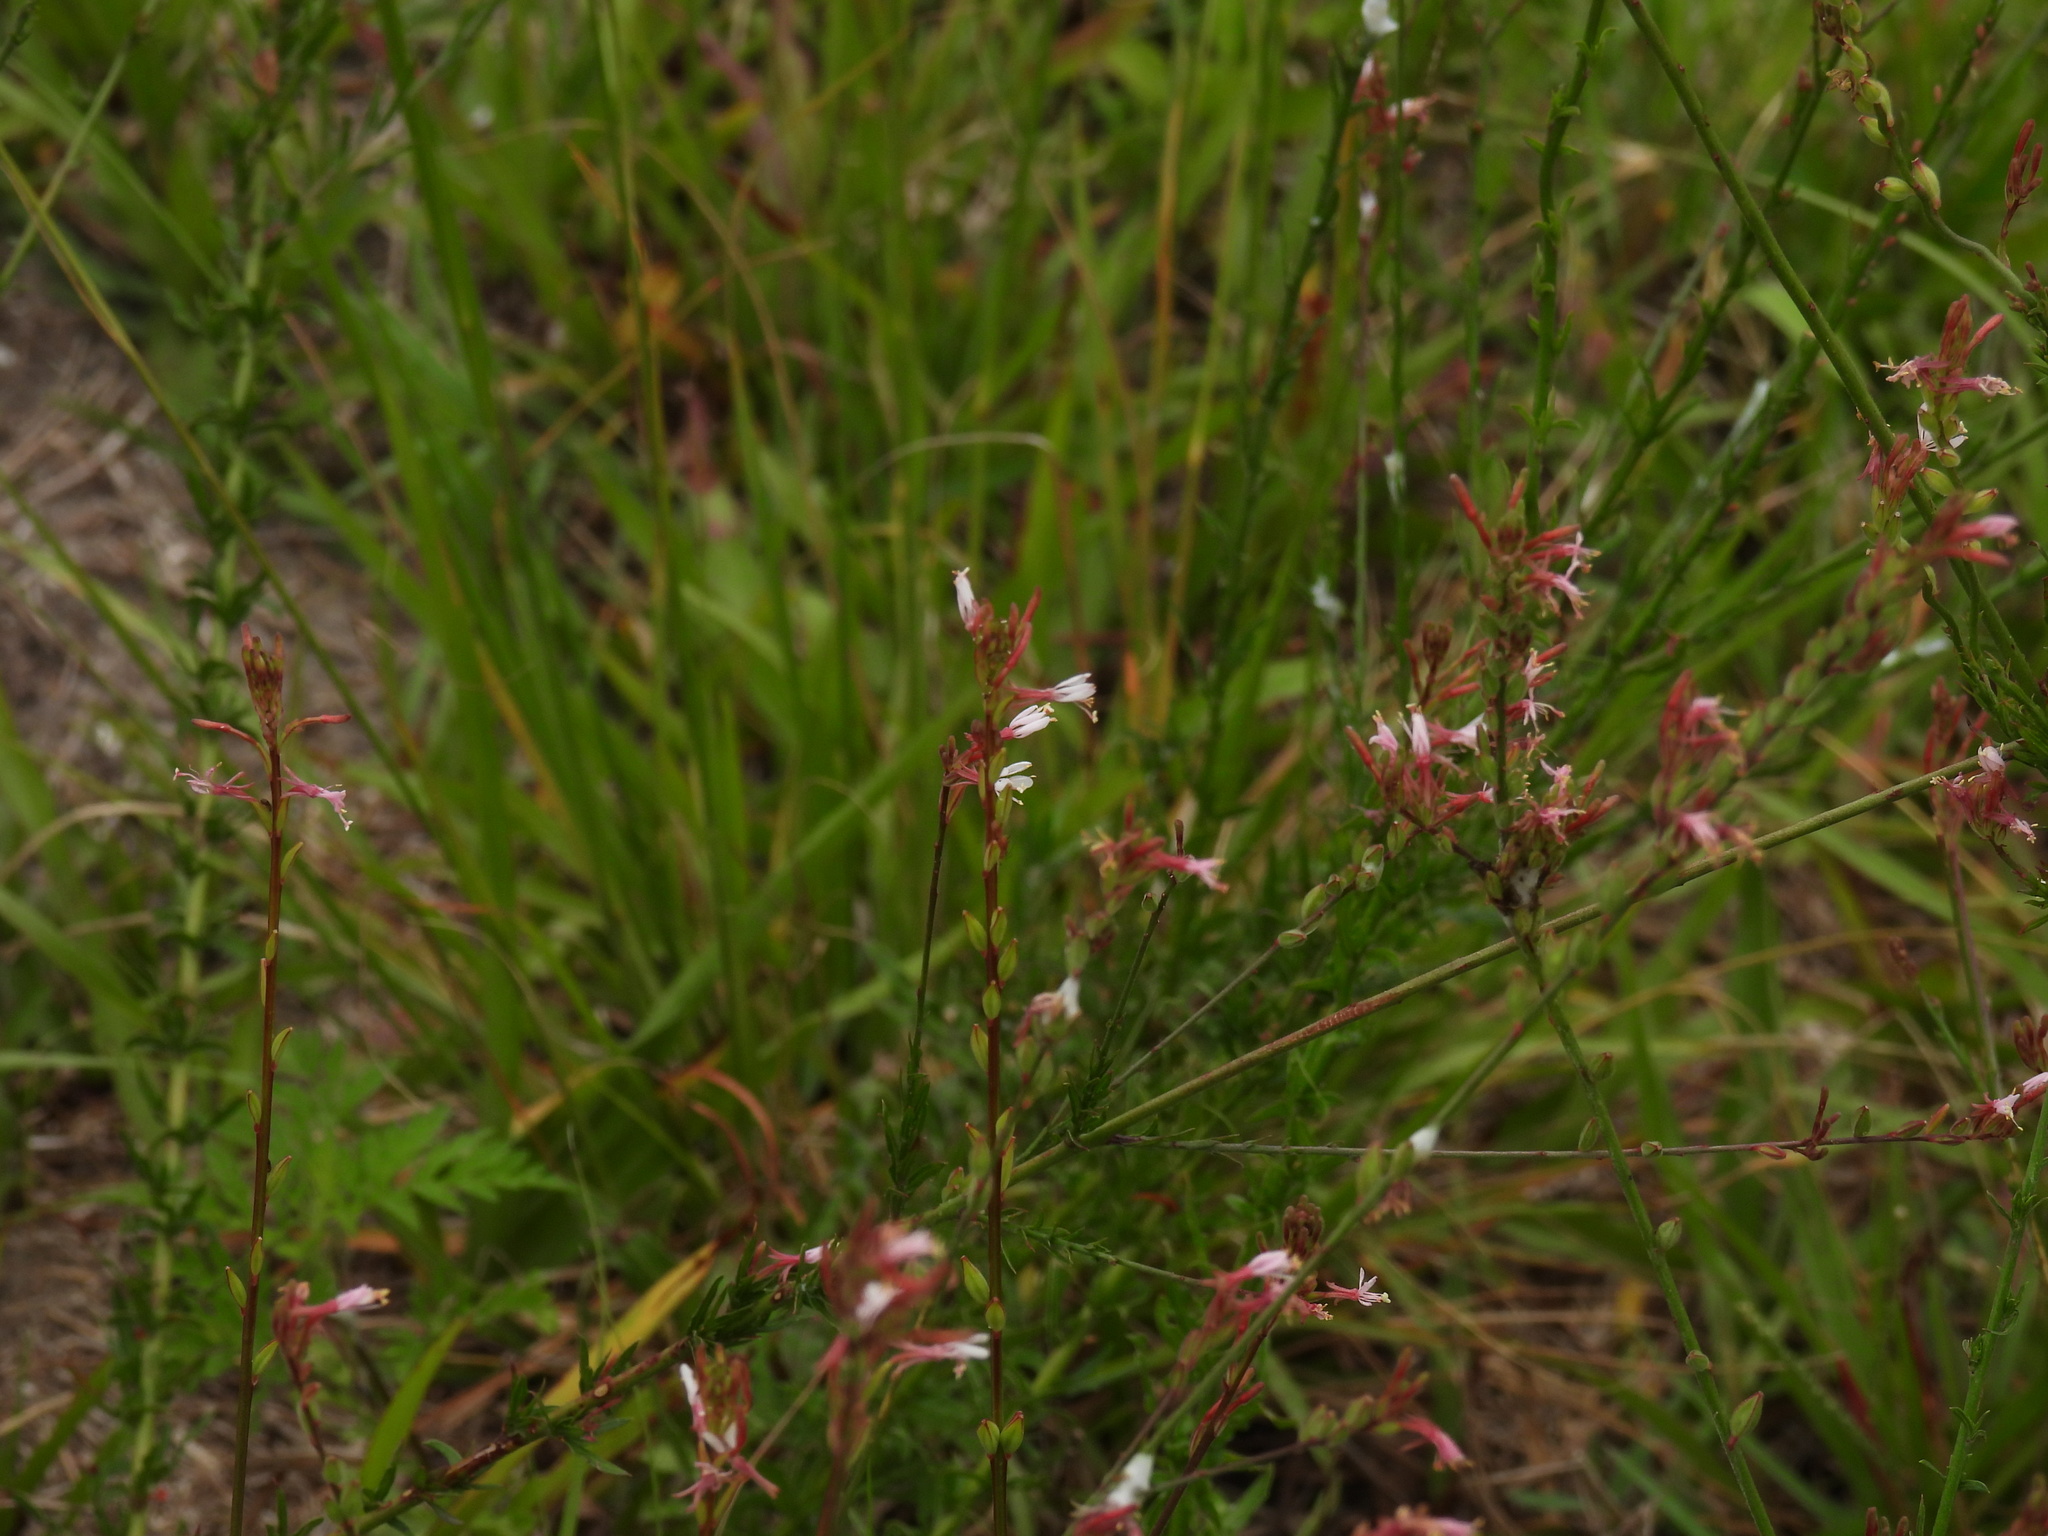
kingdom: Plantae
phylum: Tracheophyta
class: Magnoliopsida
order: Myrtales
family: Onagraceae
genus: Oenothera
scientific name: Oenothera simulans
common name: Southern beeblossom
